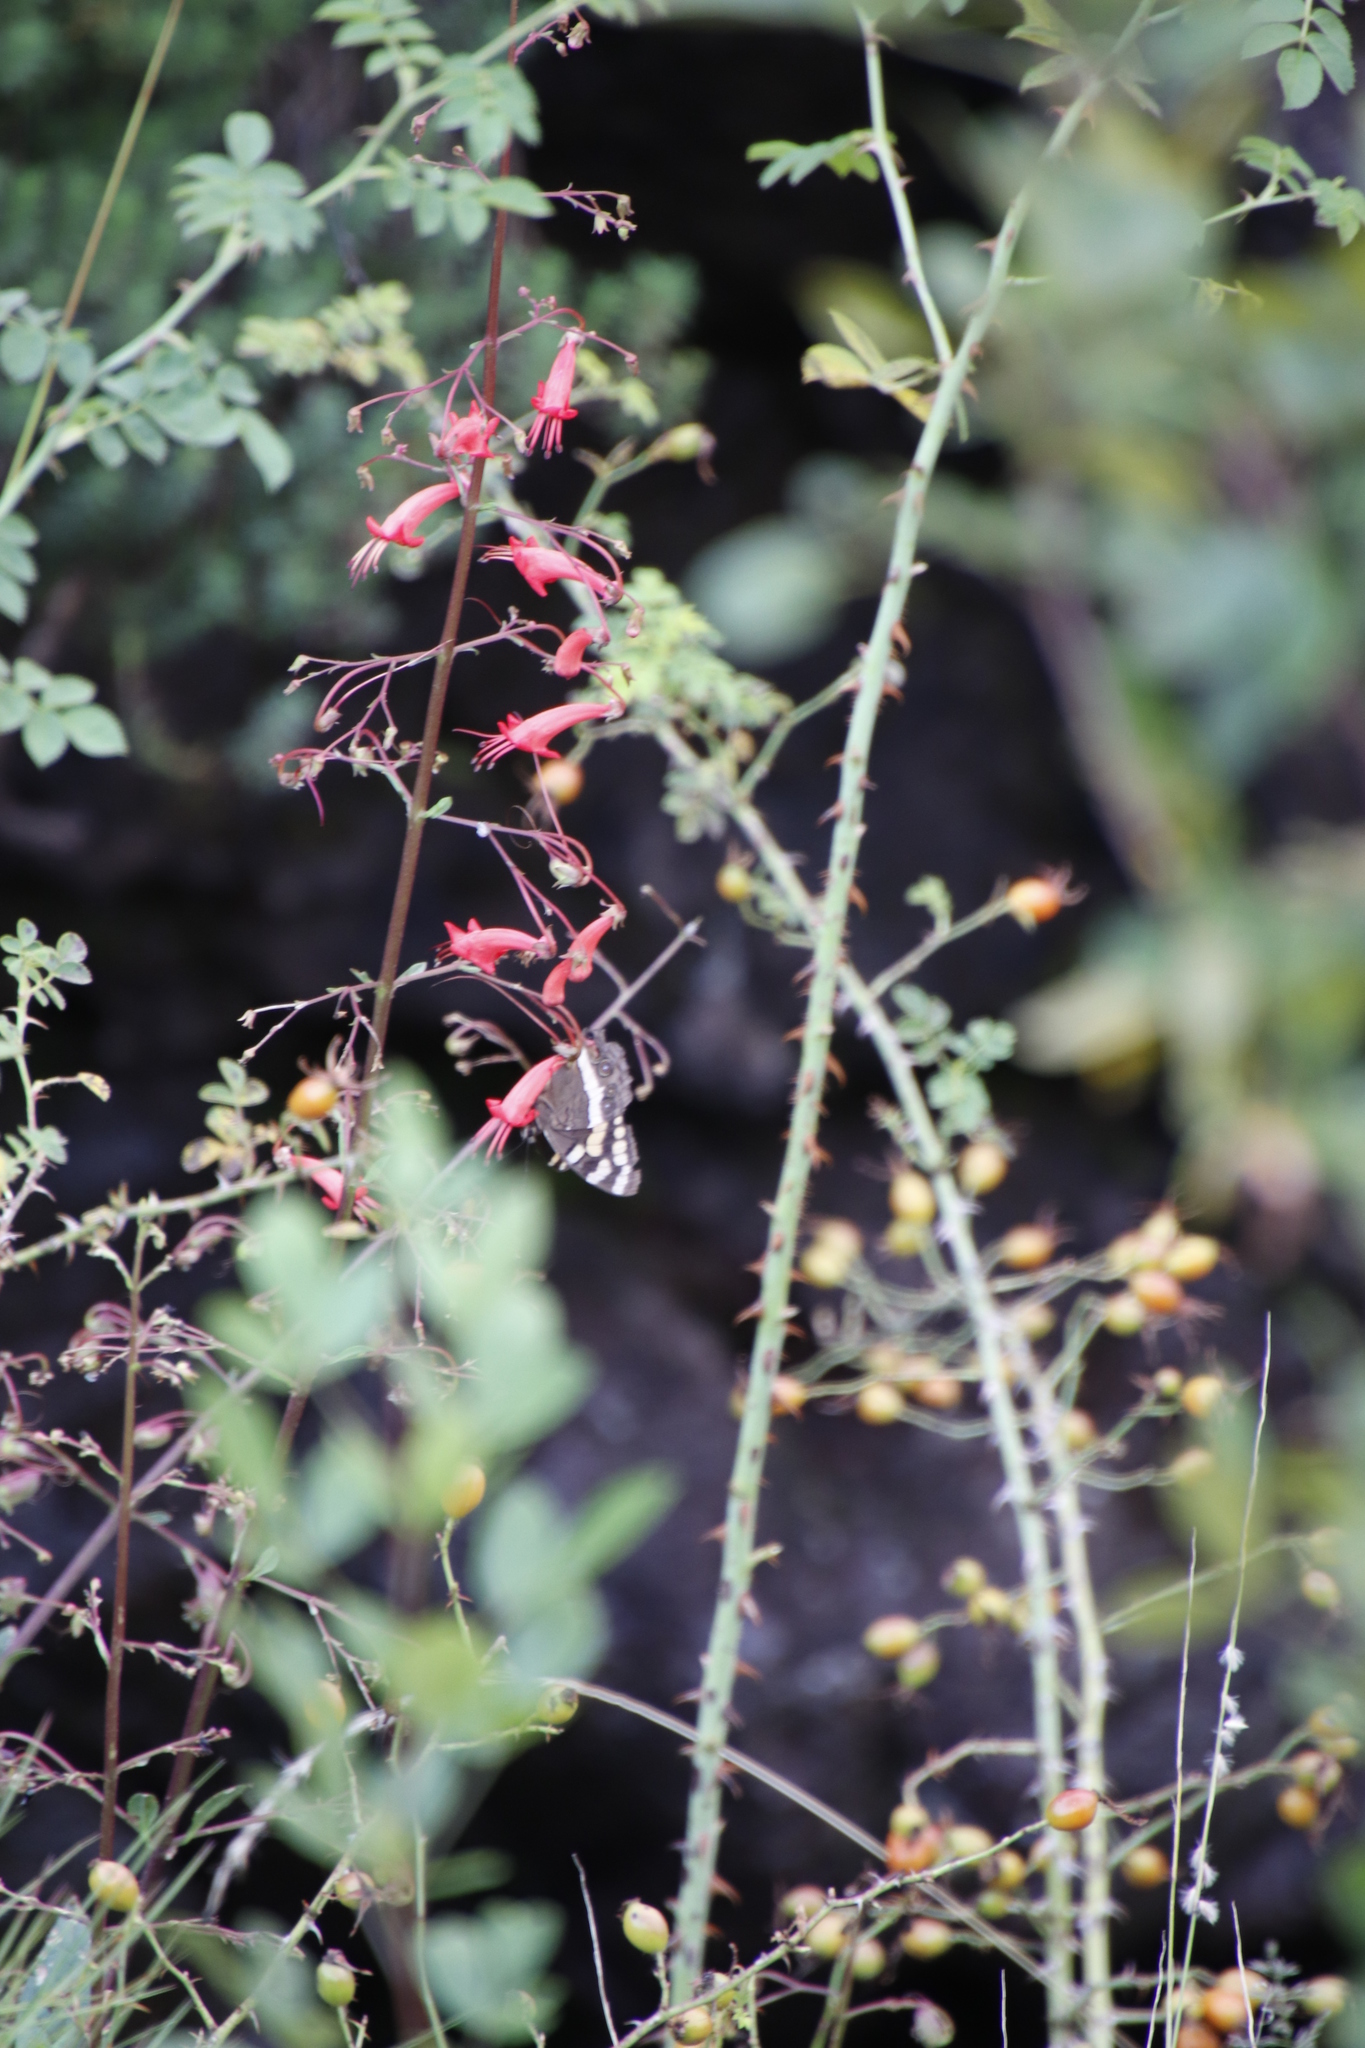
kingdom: Plantae
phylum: Tracheophyta
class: Magnoliopsida
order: Lamiales
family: Scrophulariaceae
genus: Phygelius
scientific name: Phygelius capensis
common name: Cape figwort
